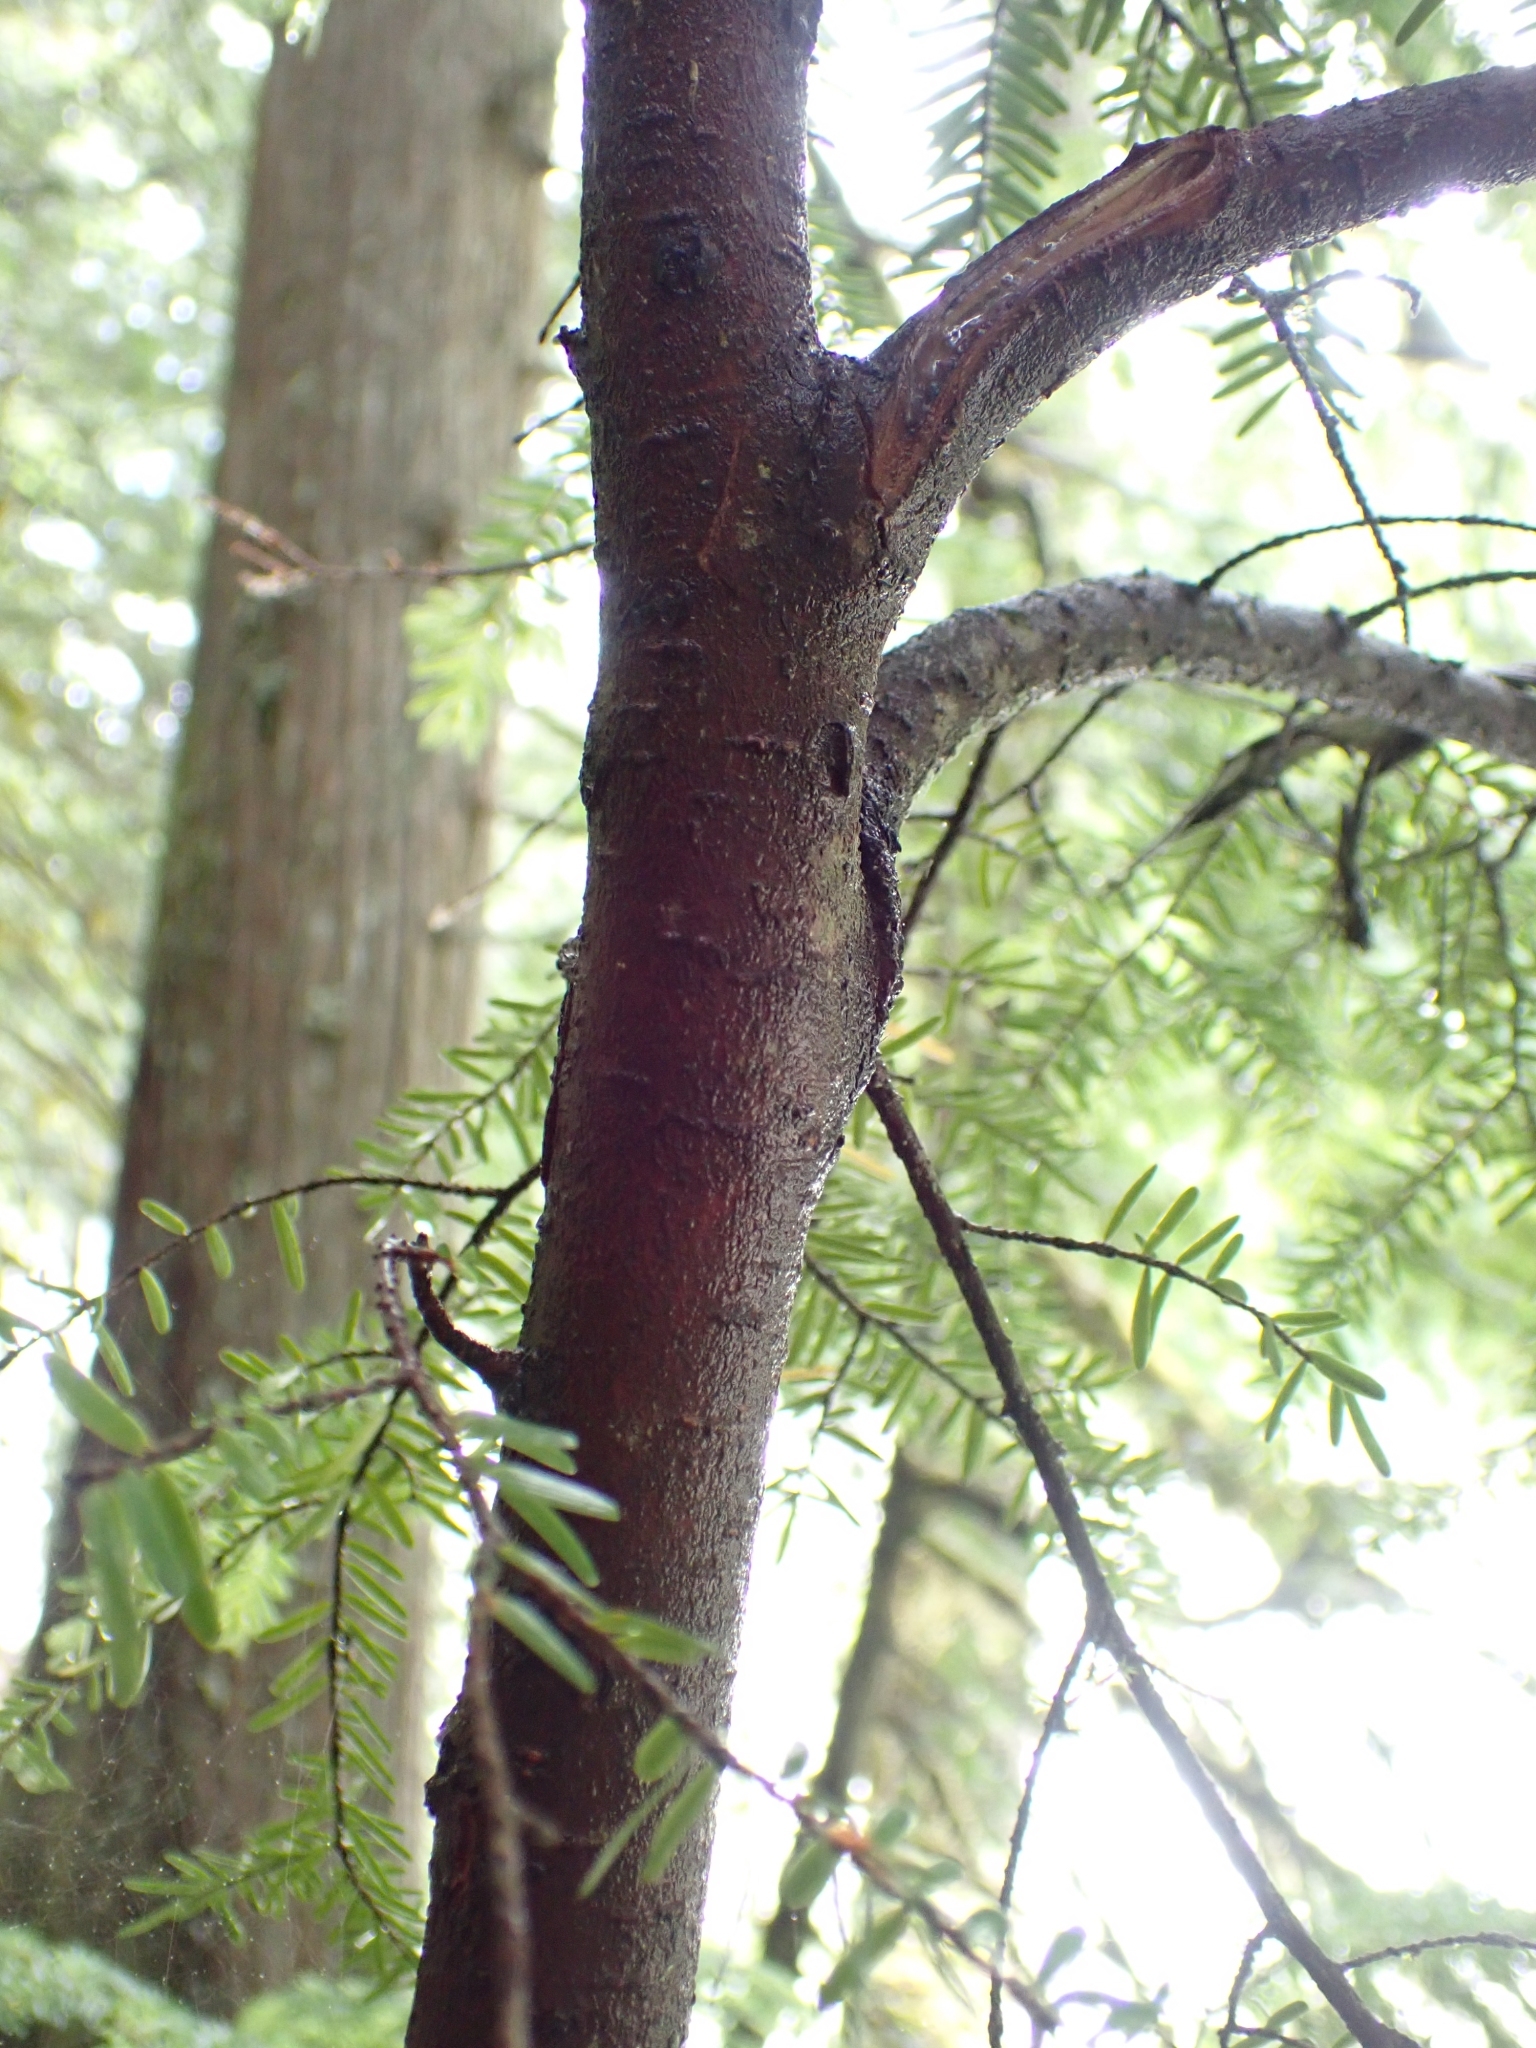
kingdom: Plantae
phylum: Tracheophyta
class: Pinopsida
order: Pinales
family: Pinaceae
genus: Tsuga
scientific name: Tsuga heterophylla
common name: Western hemlock
